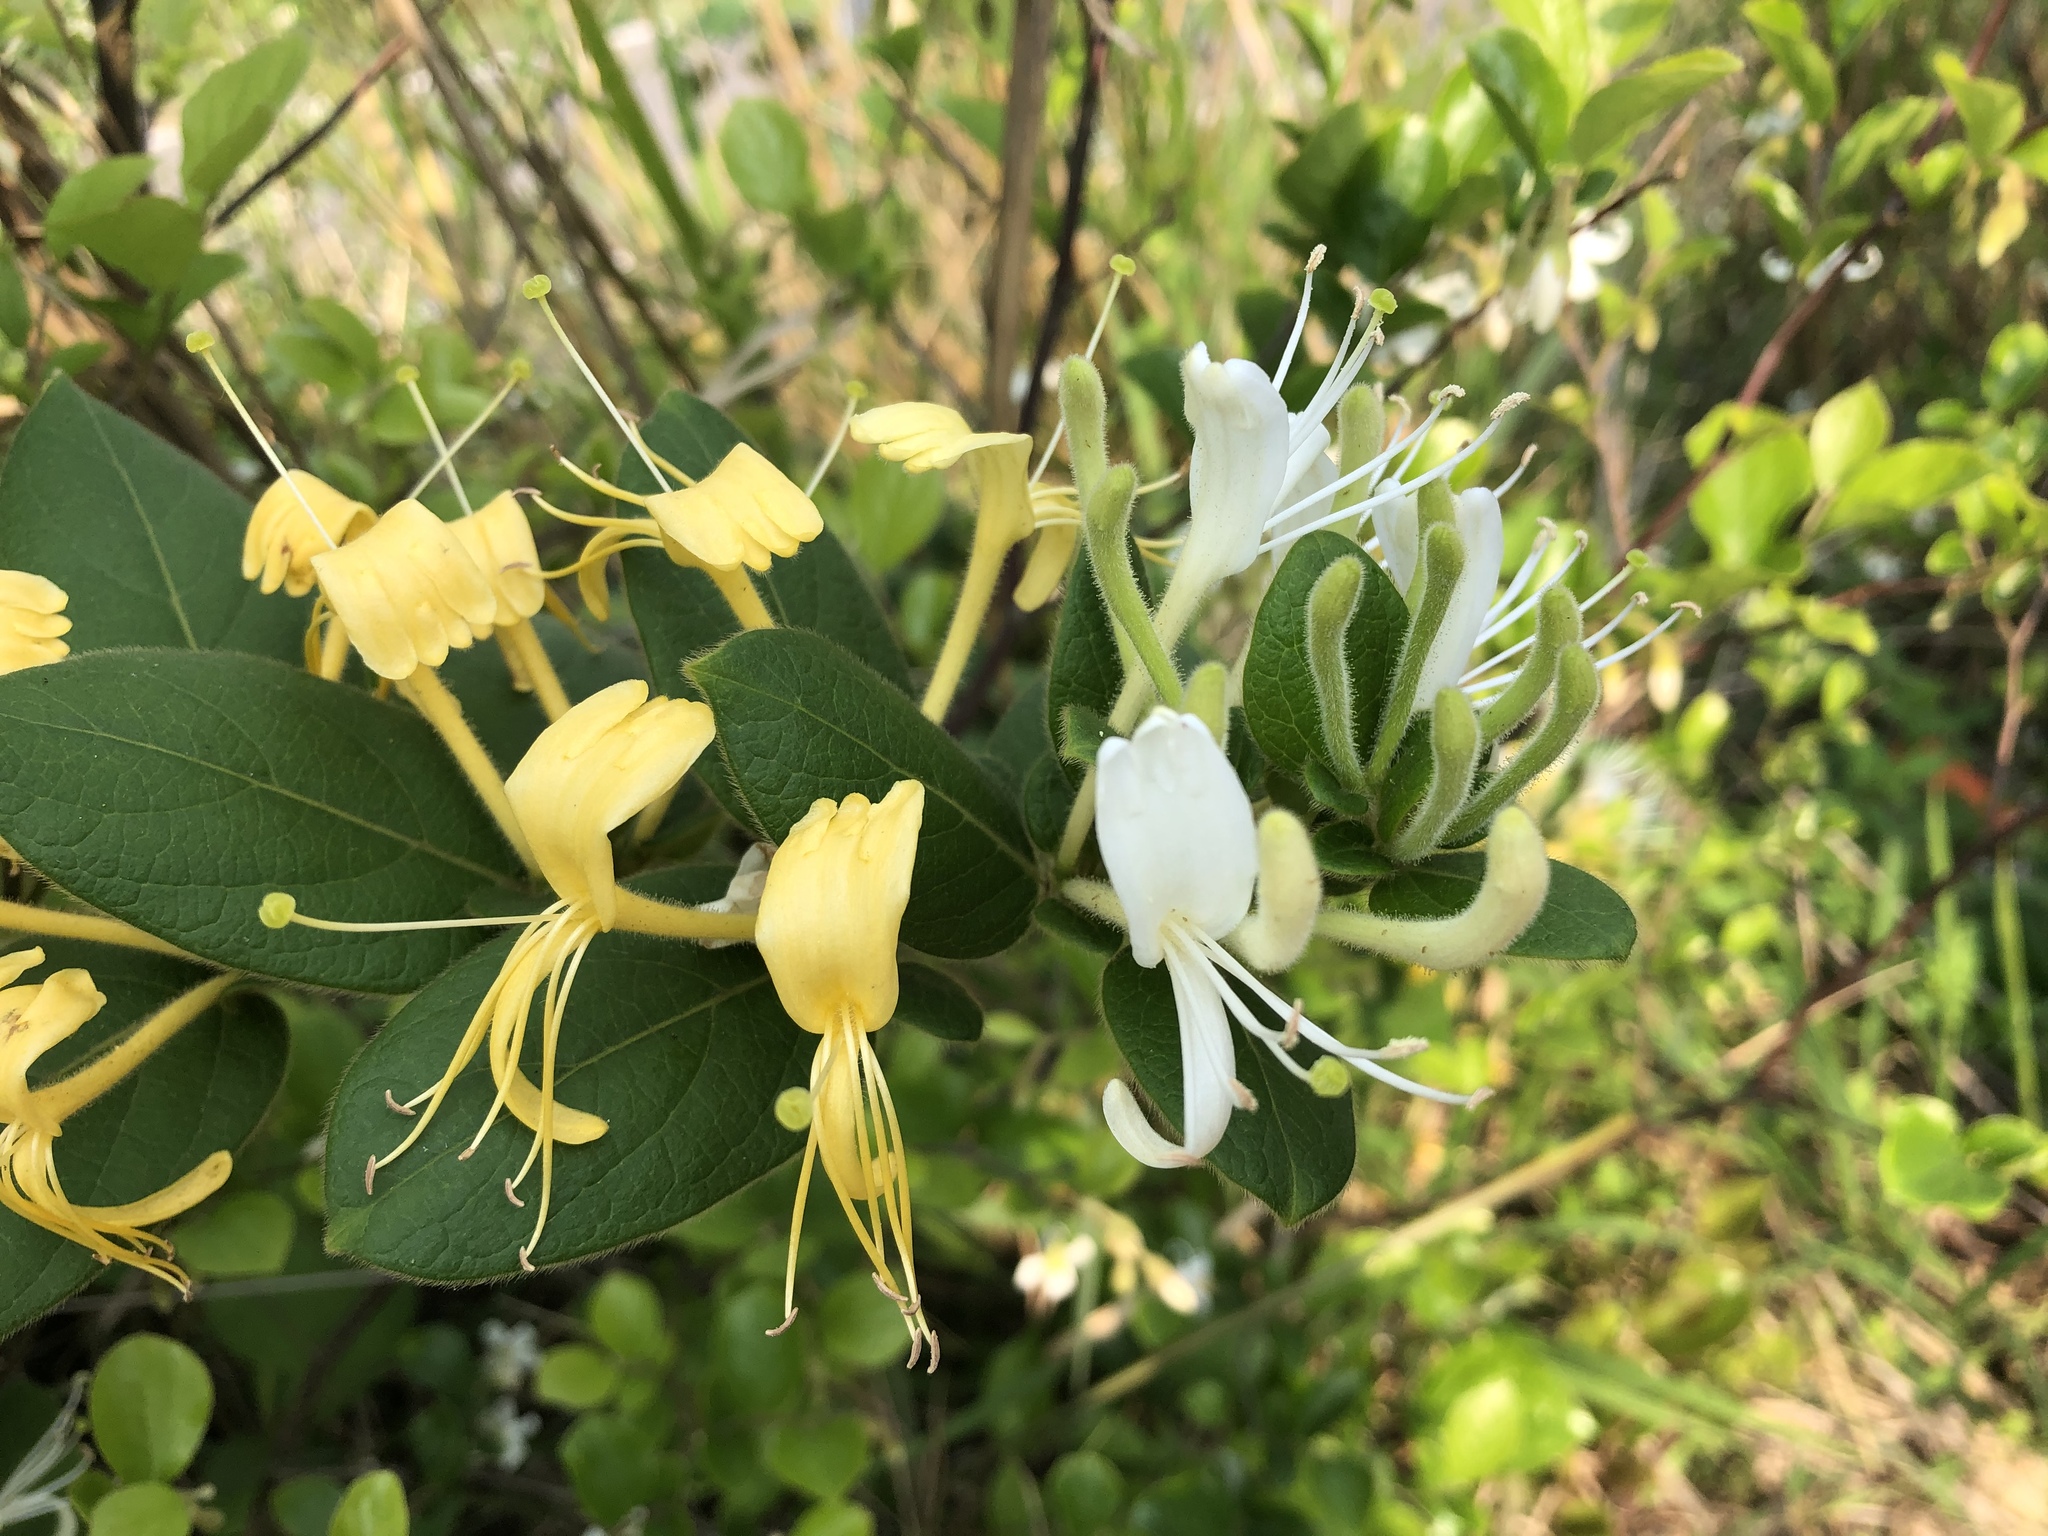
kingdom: Plantae
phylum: Tracheophyta
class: Magnoliopsida
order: Dipsacales
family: Caprifoliaceae
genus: Lonicera
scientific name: Lonicera japonica
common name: Japanese honeysuckle
